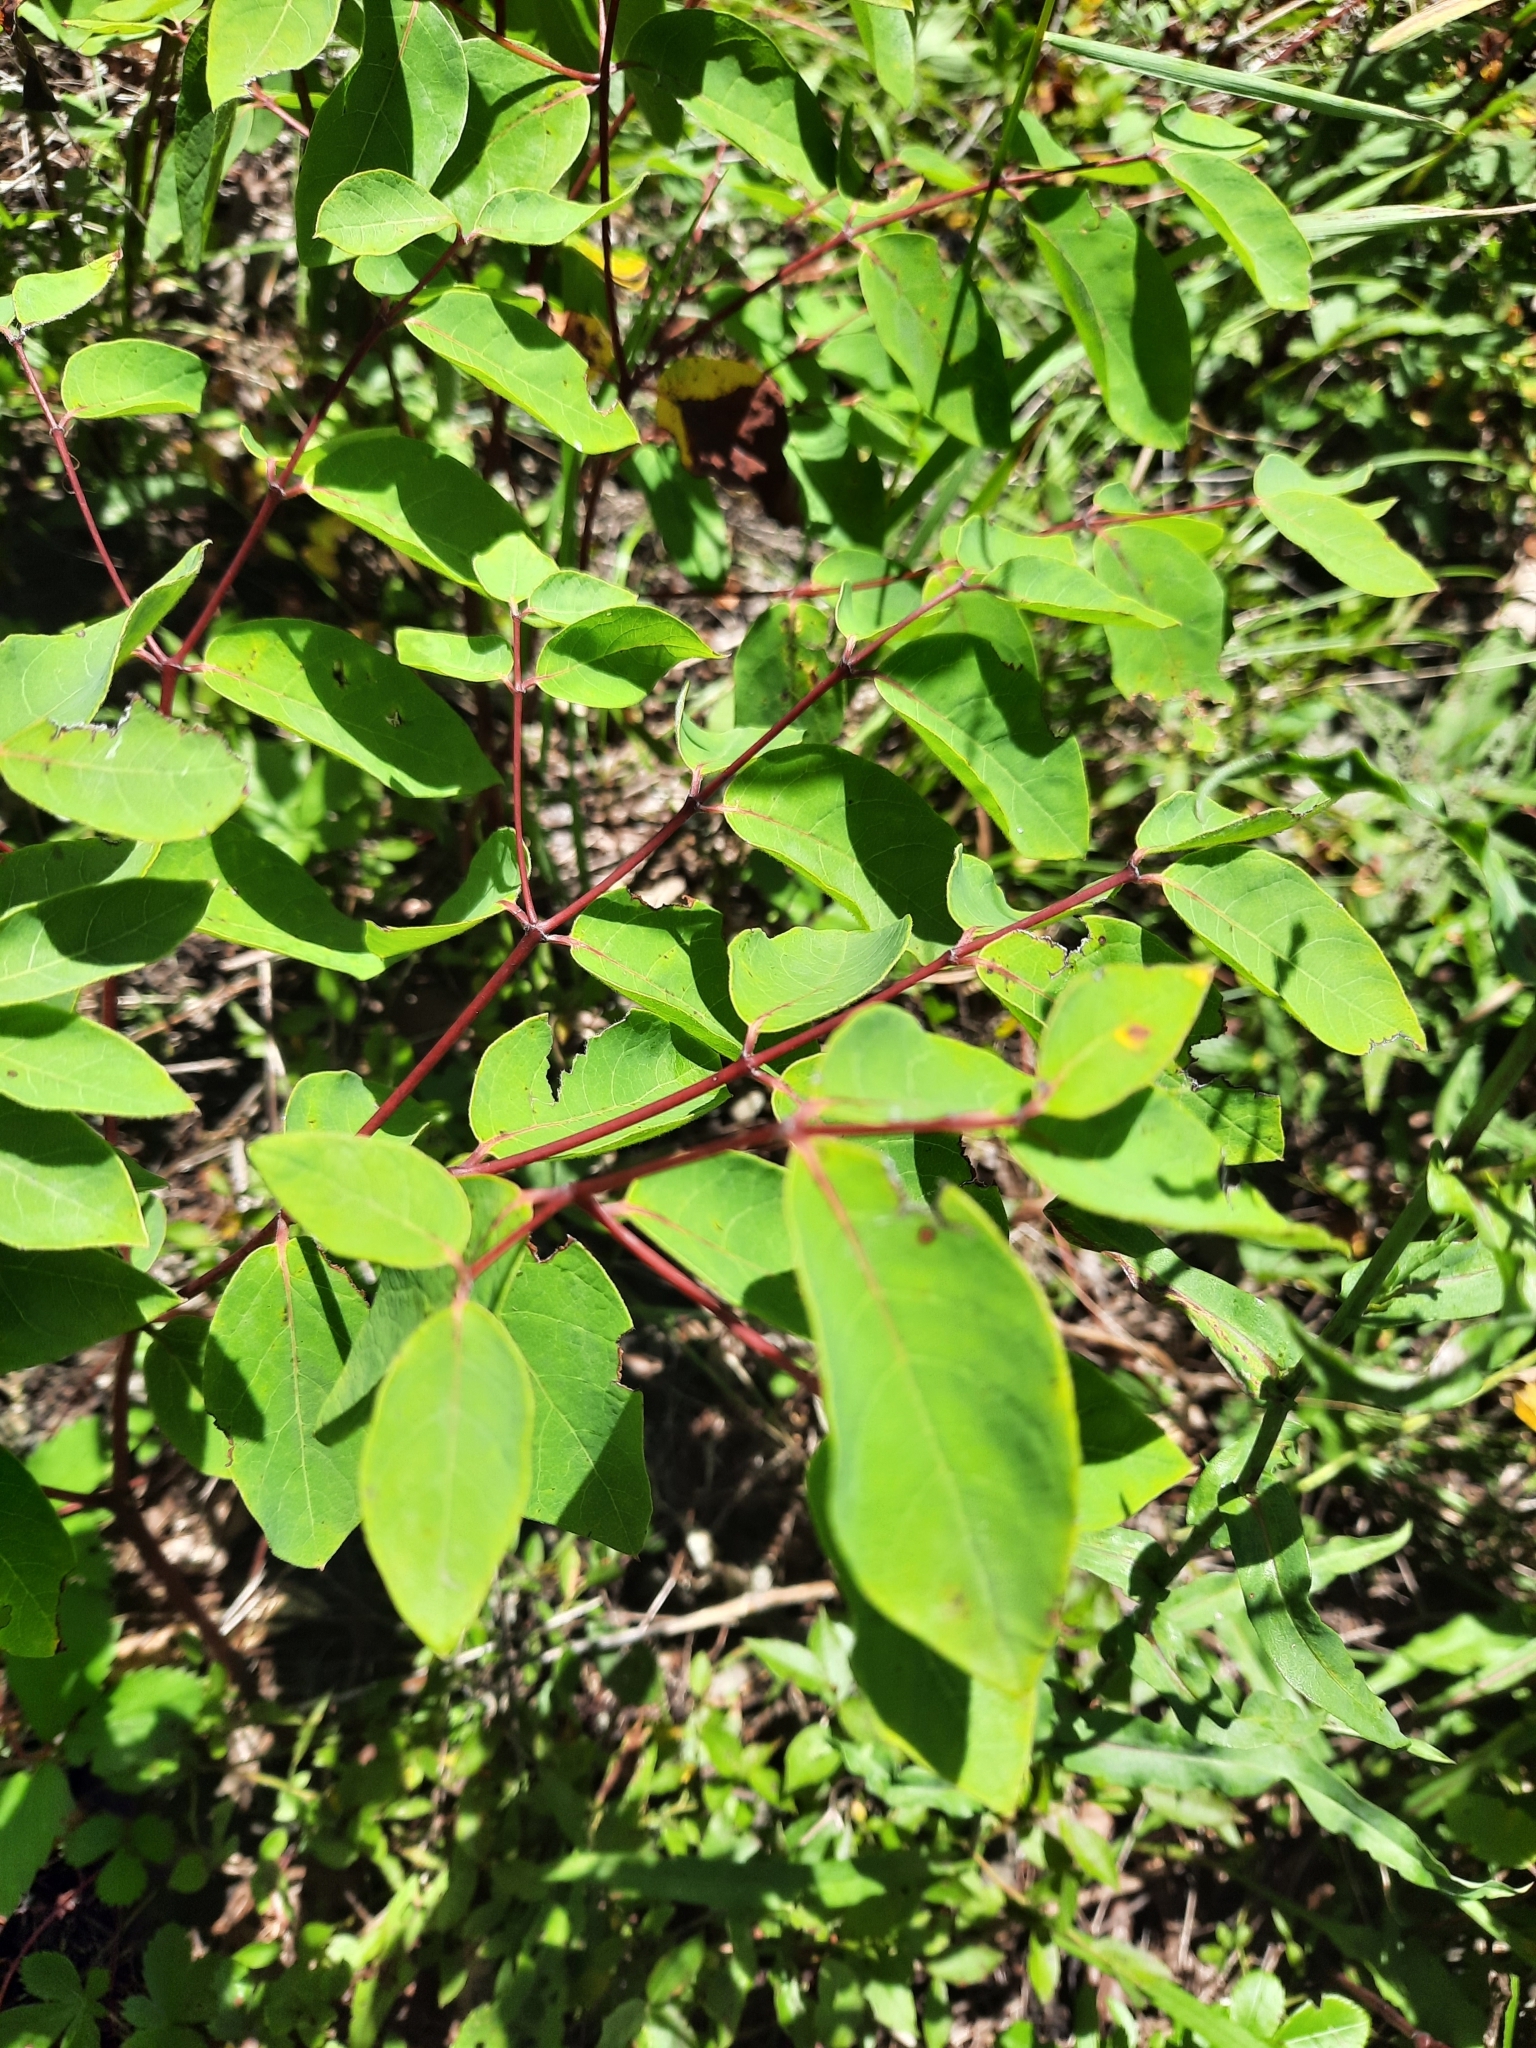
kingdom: Plantae
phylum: Tracheophyta
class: Magnoliopsida
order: Gentianales
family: Apocynaceae
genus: Apocynum
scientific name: Apocynum androsaemifolium
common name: Spreading dogbane
